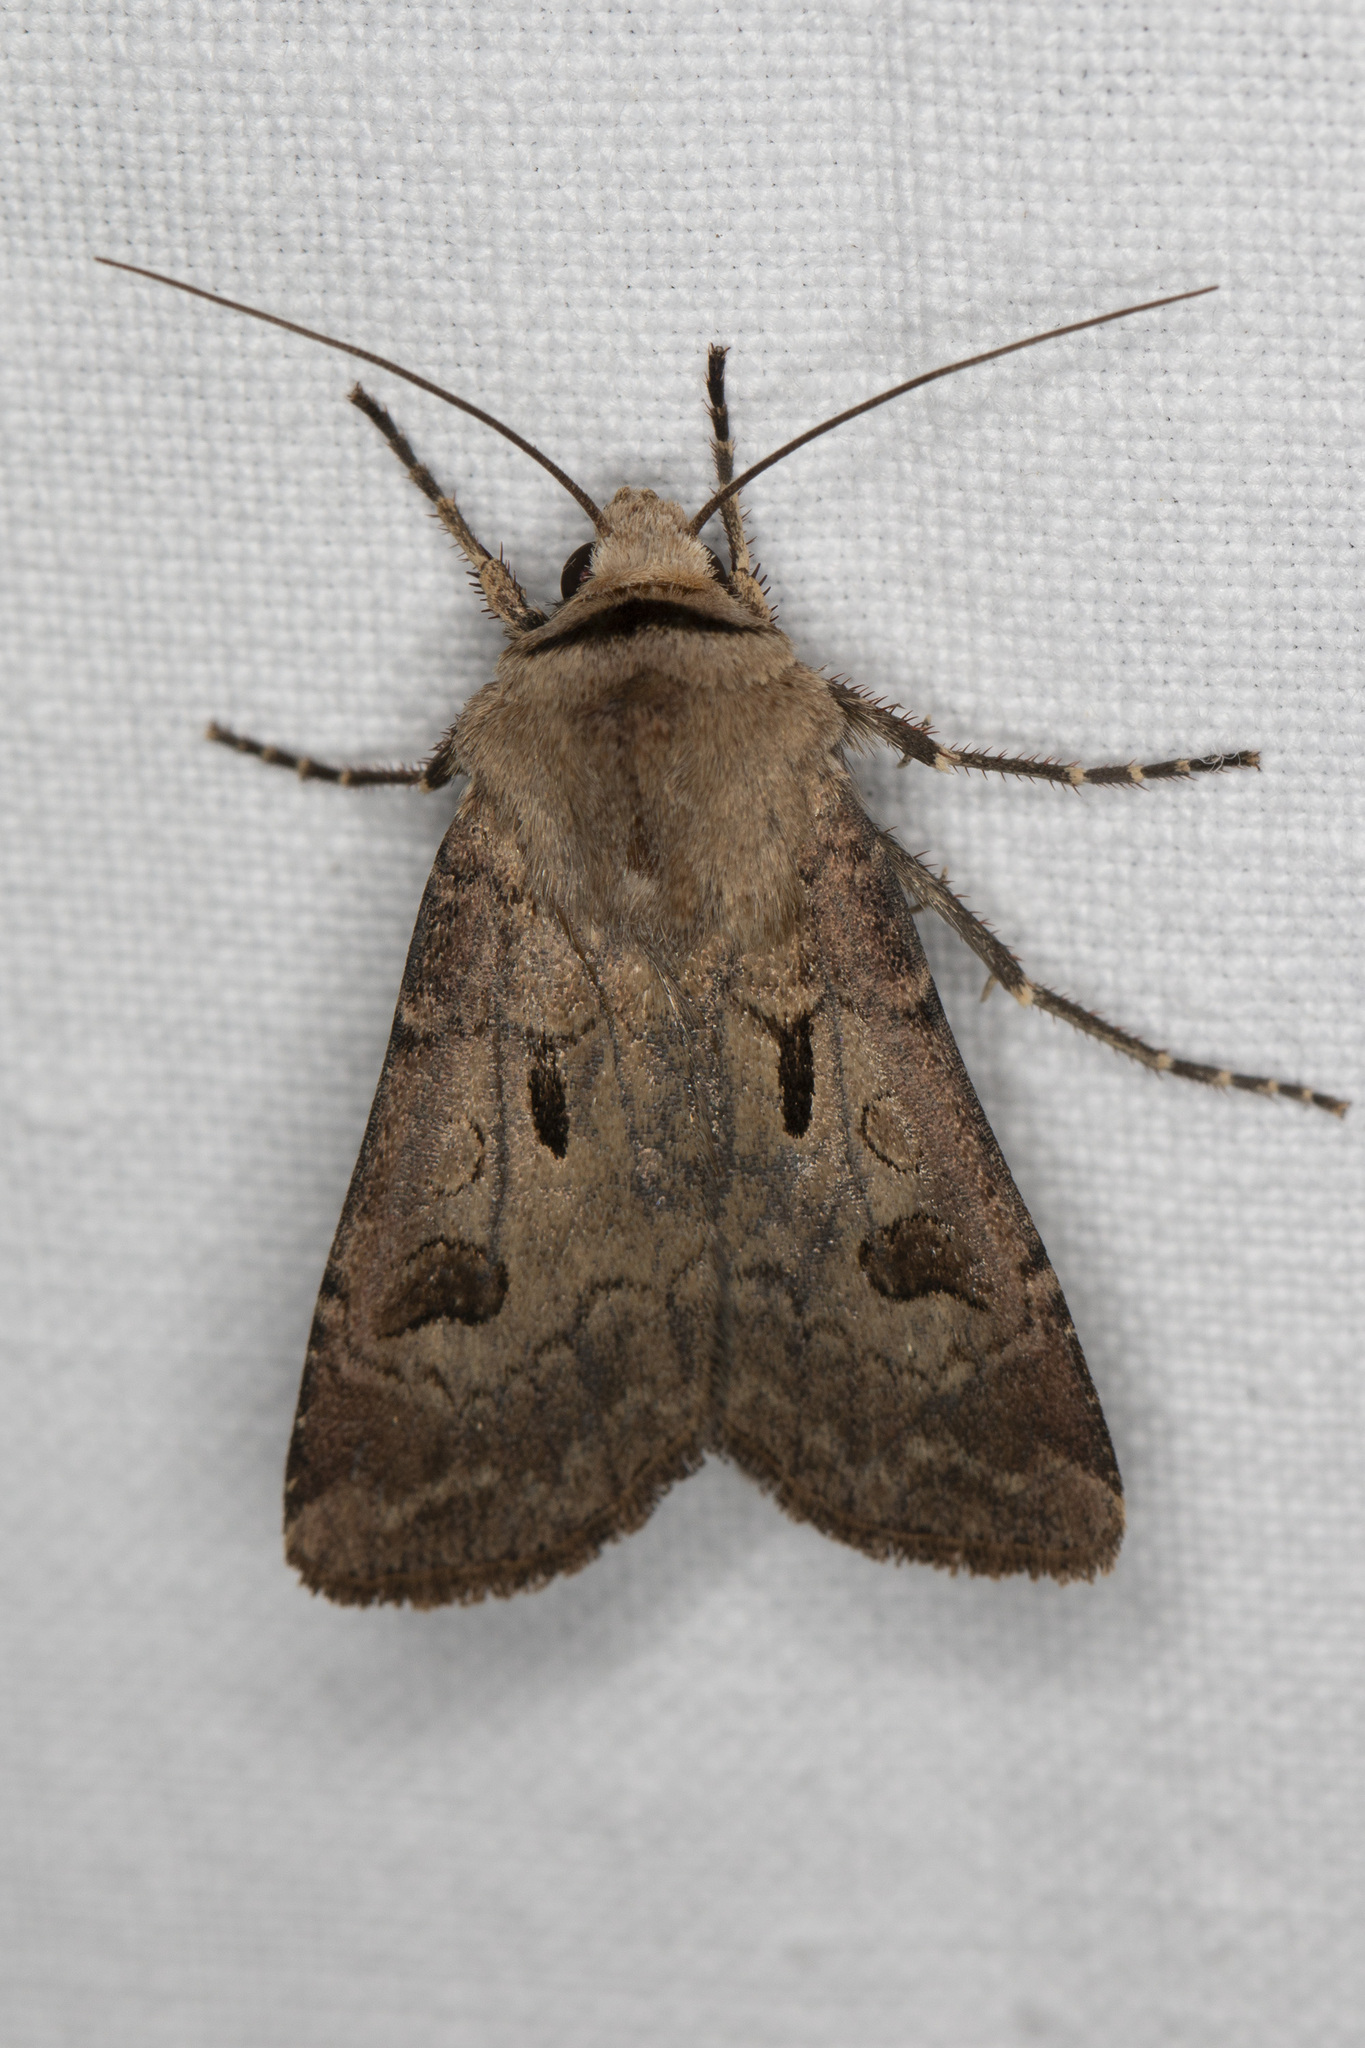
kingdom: Animalia
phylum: Arthropoda
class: Insecta
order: Lepidoptera
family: Noctuidae
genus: Agrotis
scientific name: Agrotis exclamationis
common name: Heart and dart
